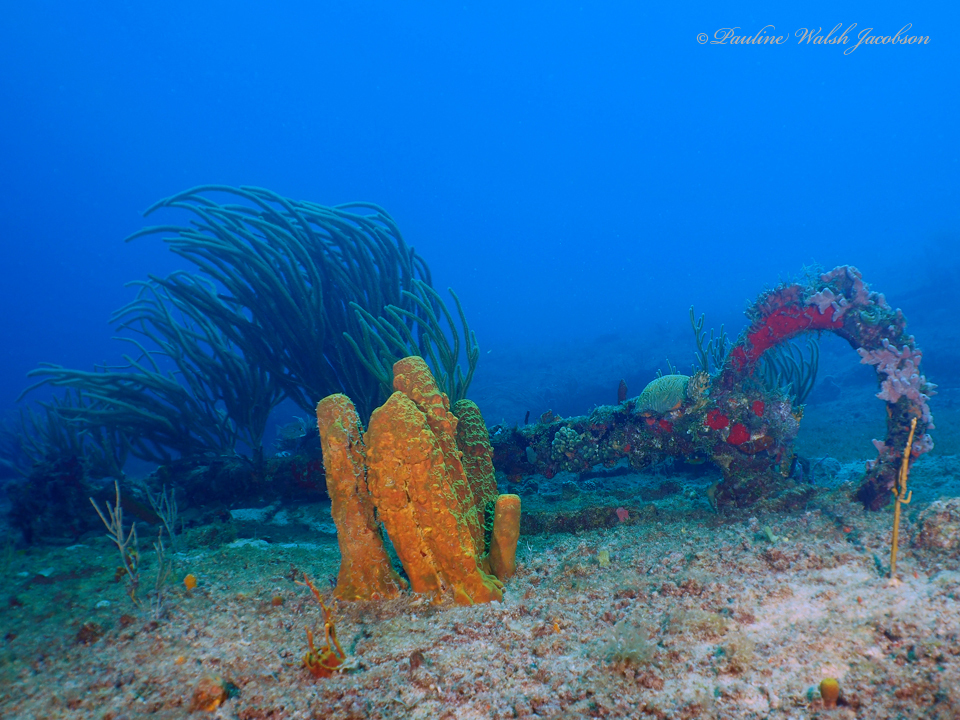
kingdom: Animalia
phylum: Porifera
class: Demospongiae
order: Verongiida
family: Aplysinidae
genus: Aplysina
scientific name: Aplysina fistularis
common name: Candle sponge
